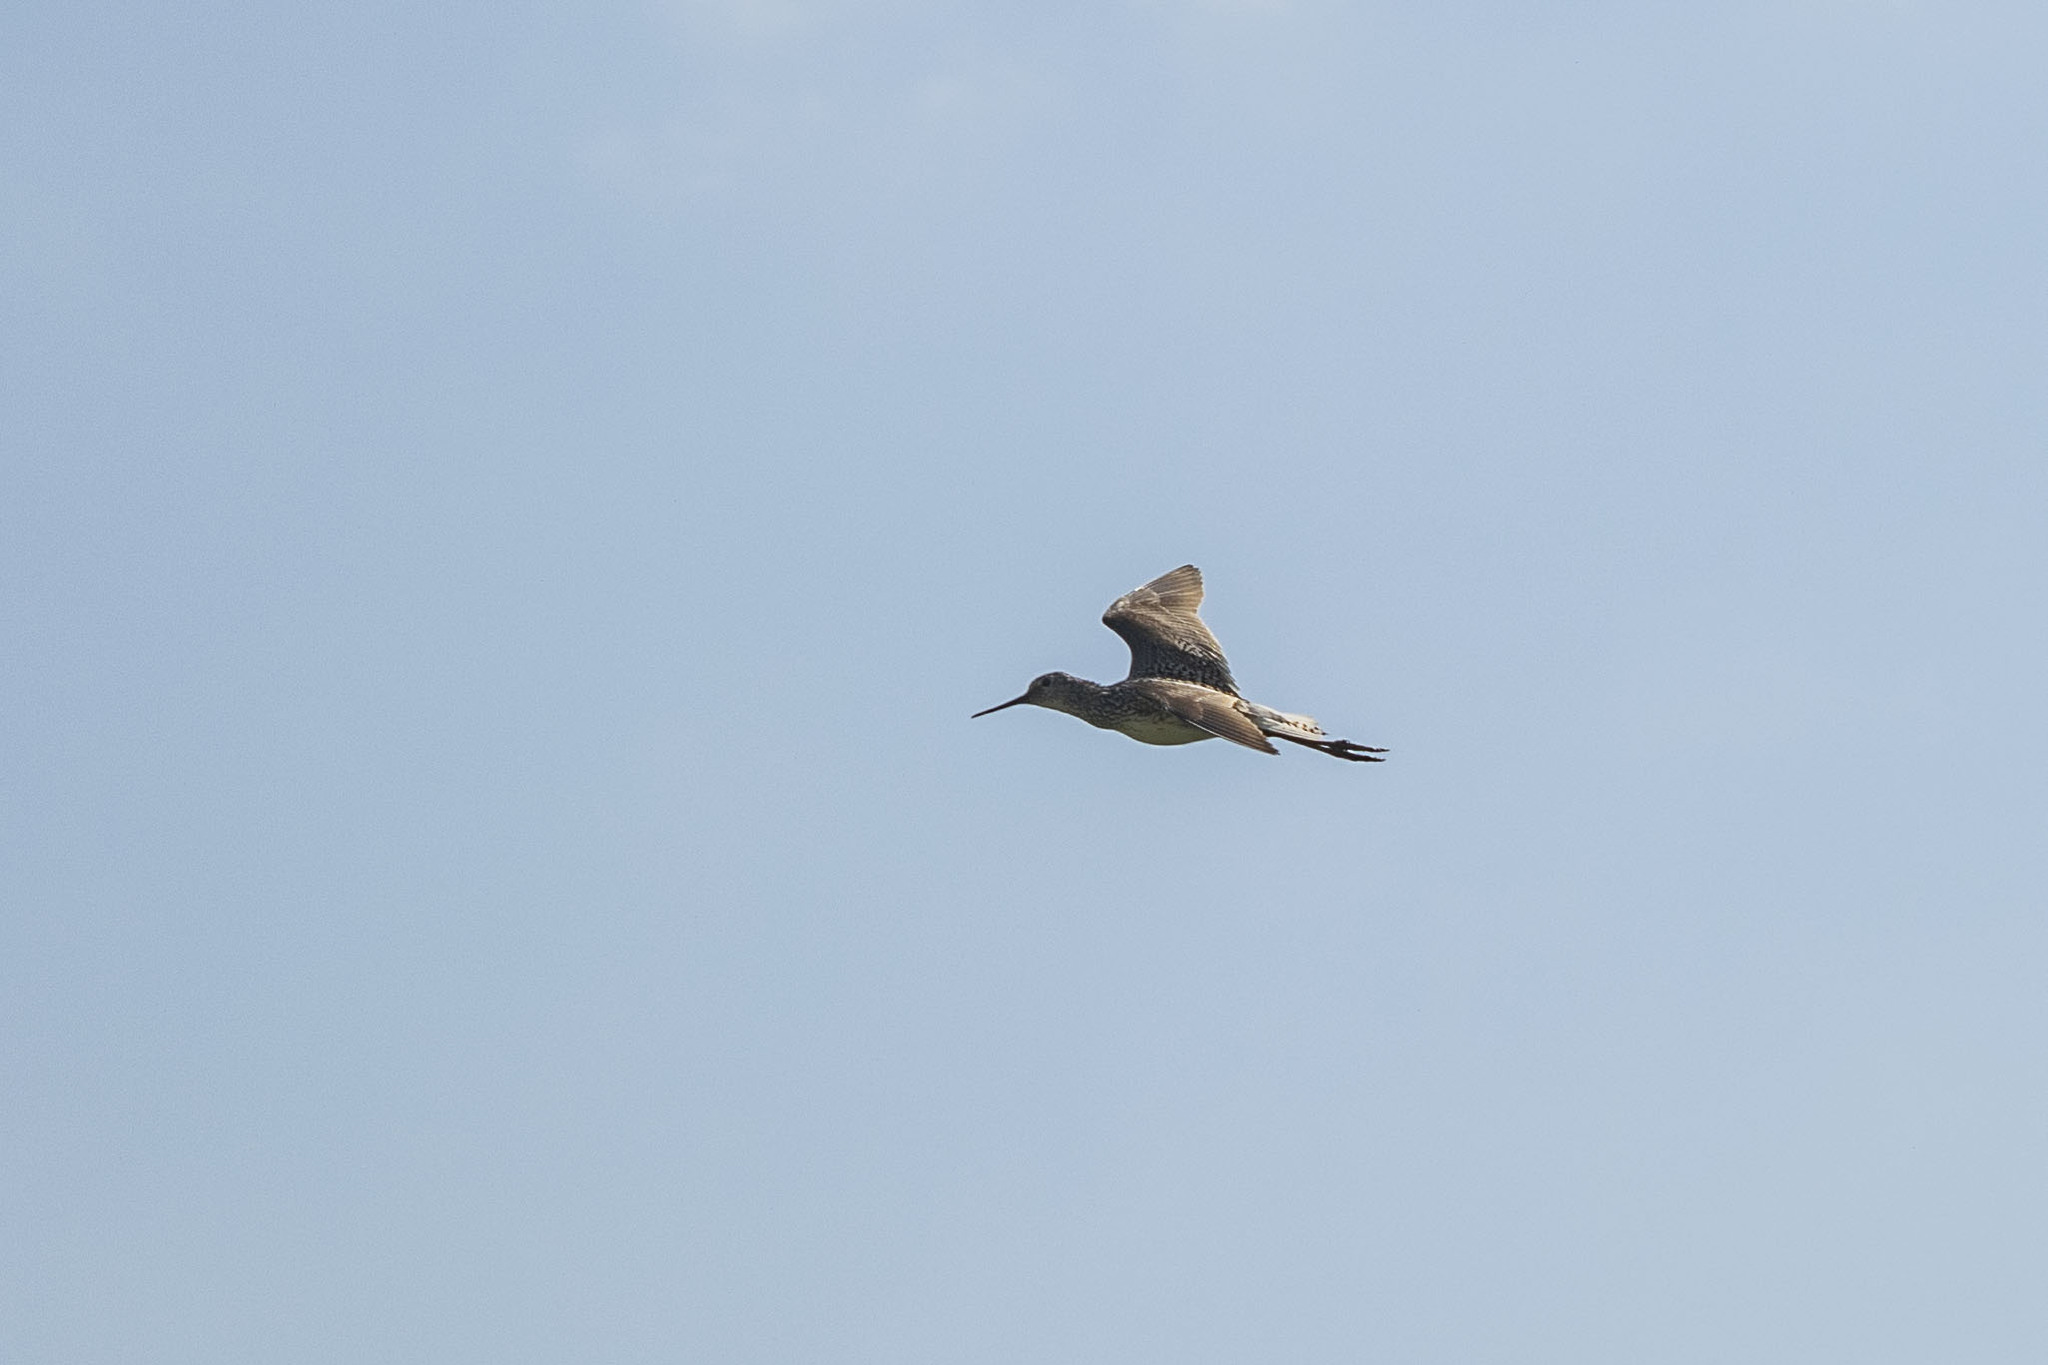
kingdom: Animalia
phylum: Chordata
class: Aves
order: Charadriiformes
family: Scolopacidae
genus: Tringa
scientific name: Tringa totanus
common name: Common redshank
